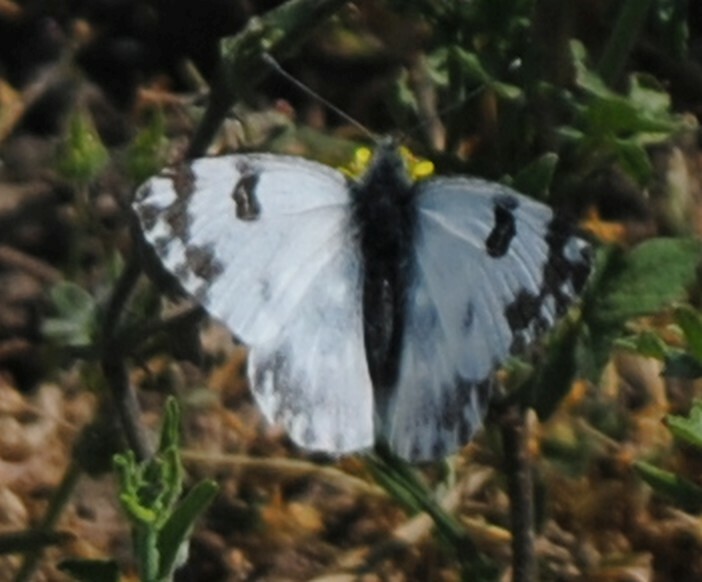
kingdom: Animalia
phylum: Arthropoda
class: Insecta
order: Lepidoptera
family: Pieridae
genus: Pontia
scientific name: Pontia edusa
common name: Eastern bath white
